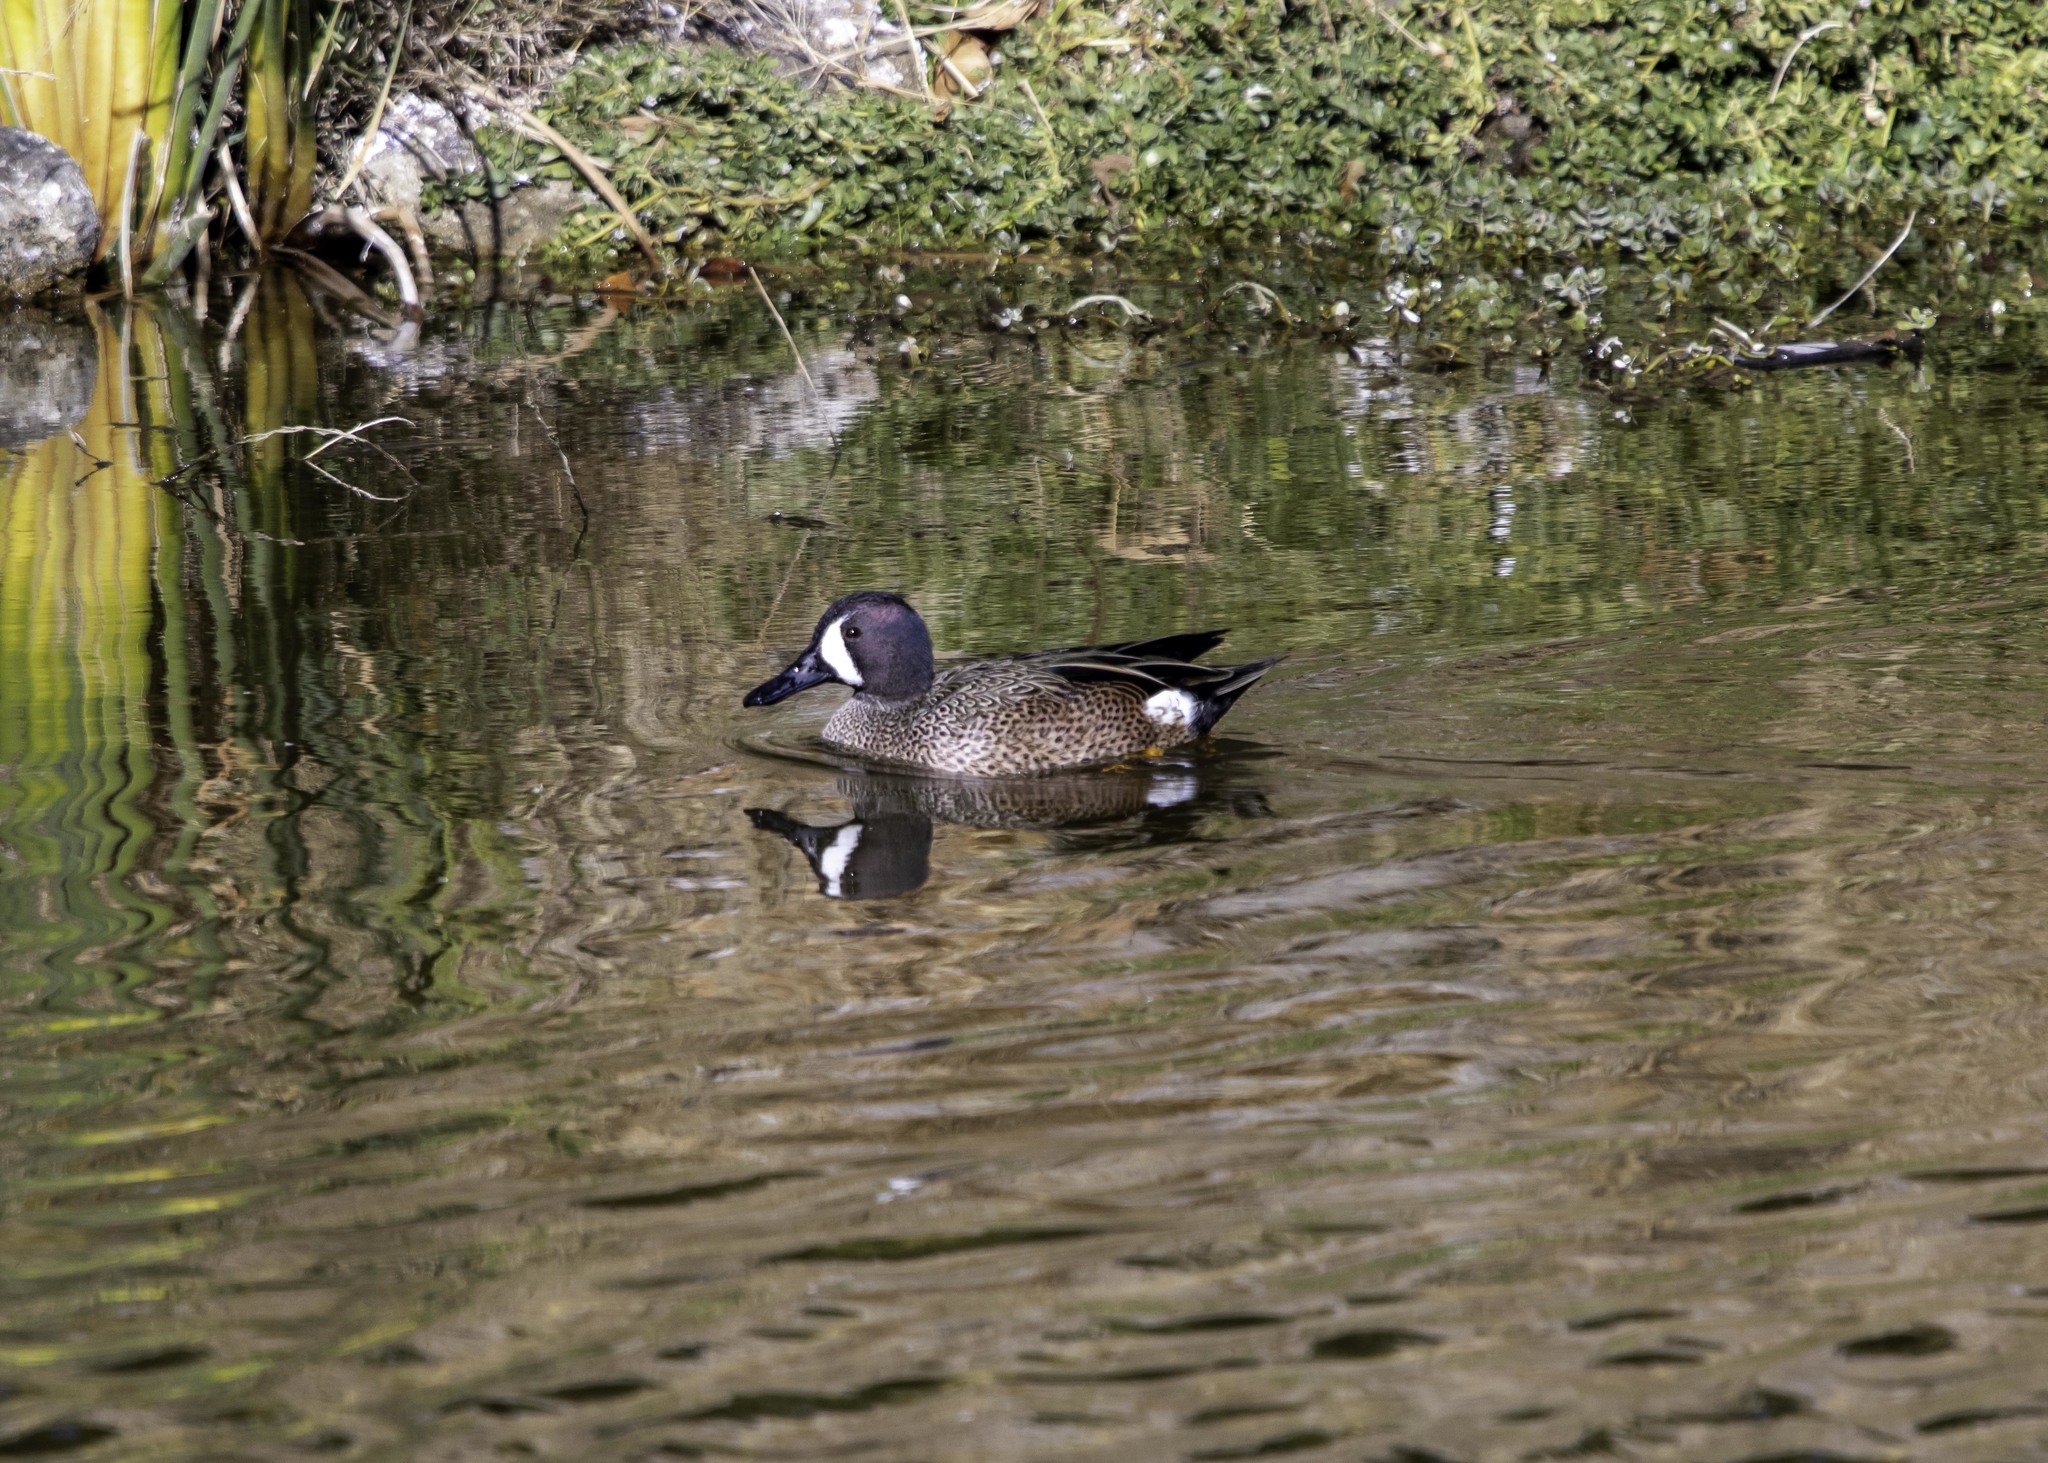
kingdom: Animalia
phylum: Chordata
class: Aves
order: Anseriformes
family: Anatidae
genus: Spatula
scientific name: Spatula discors
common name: Blue-winged teal
